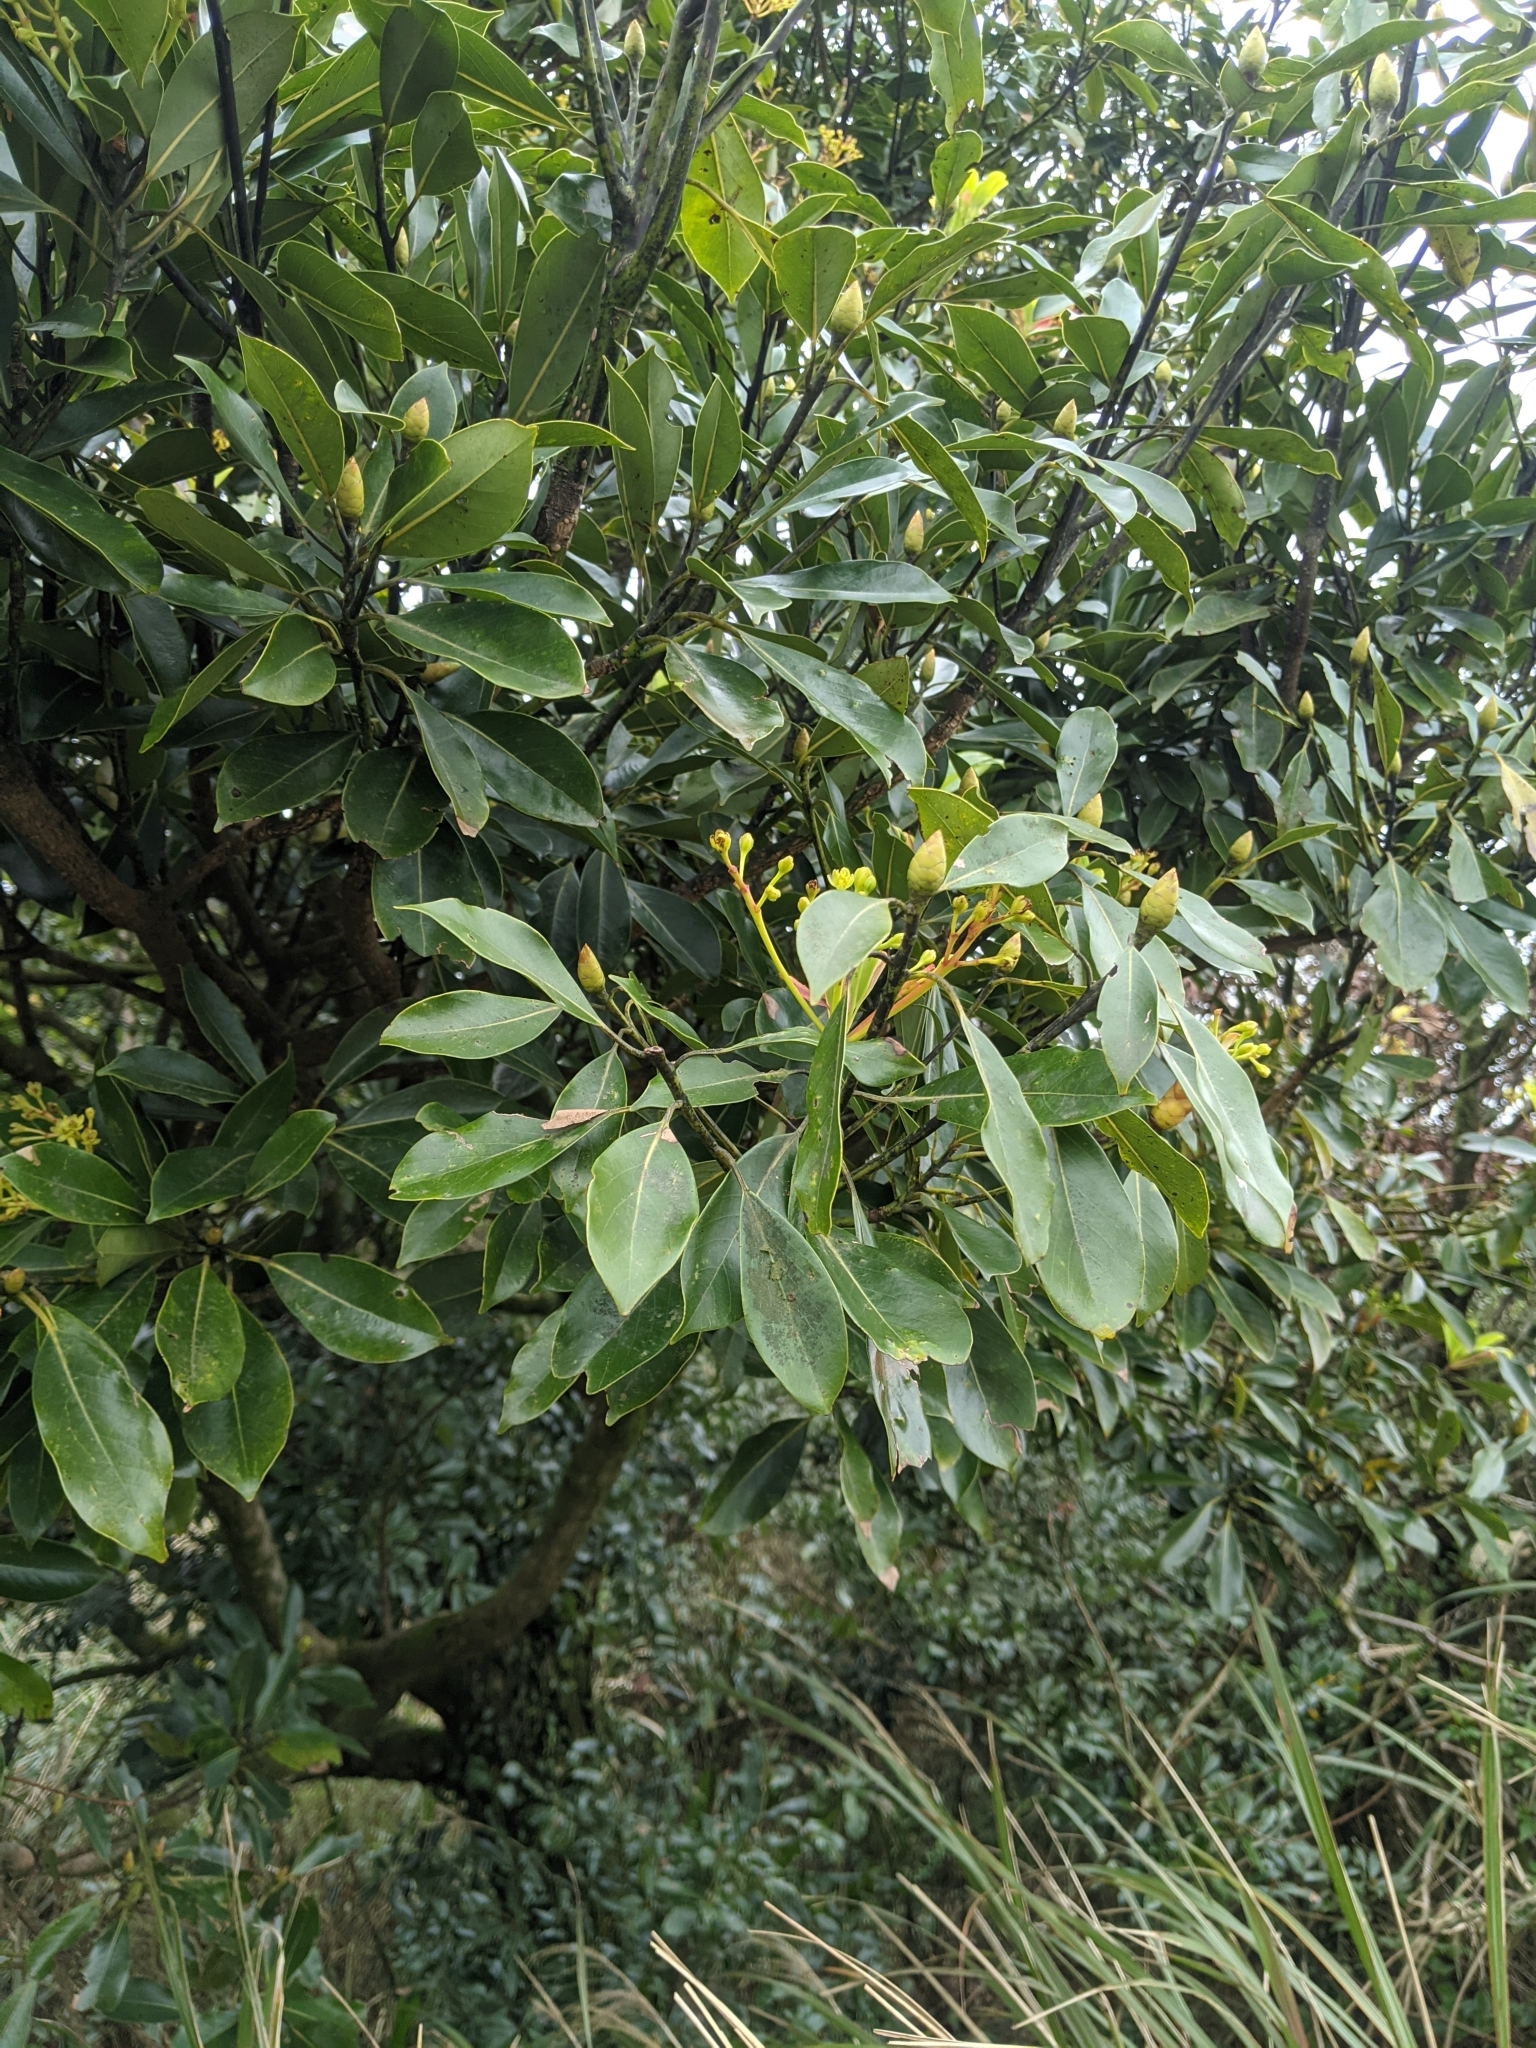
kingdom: Plantae
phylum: Tracheophyta
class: Magnoliopsida
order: Laurales
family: Lauraceae
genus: Machilus
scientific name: Machilus thunbergii
